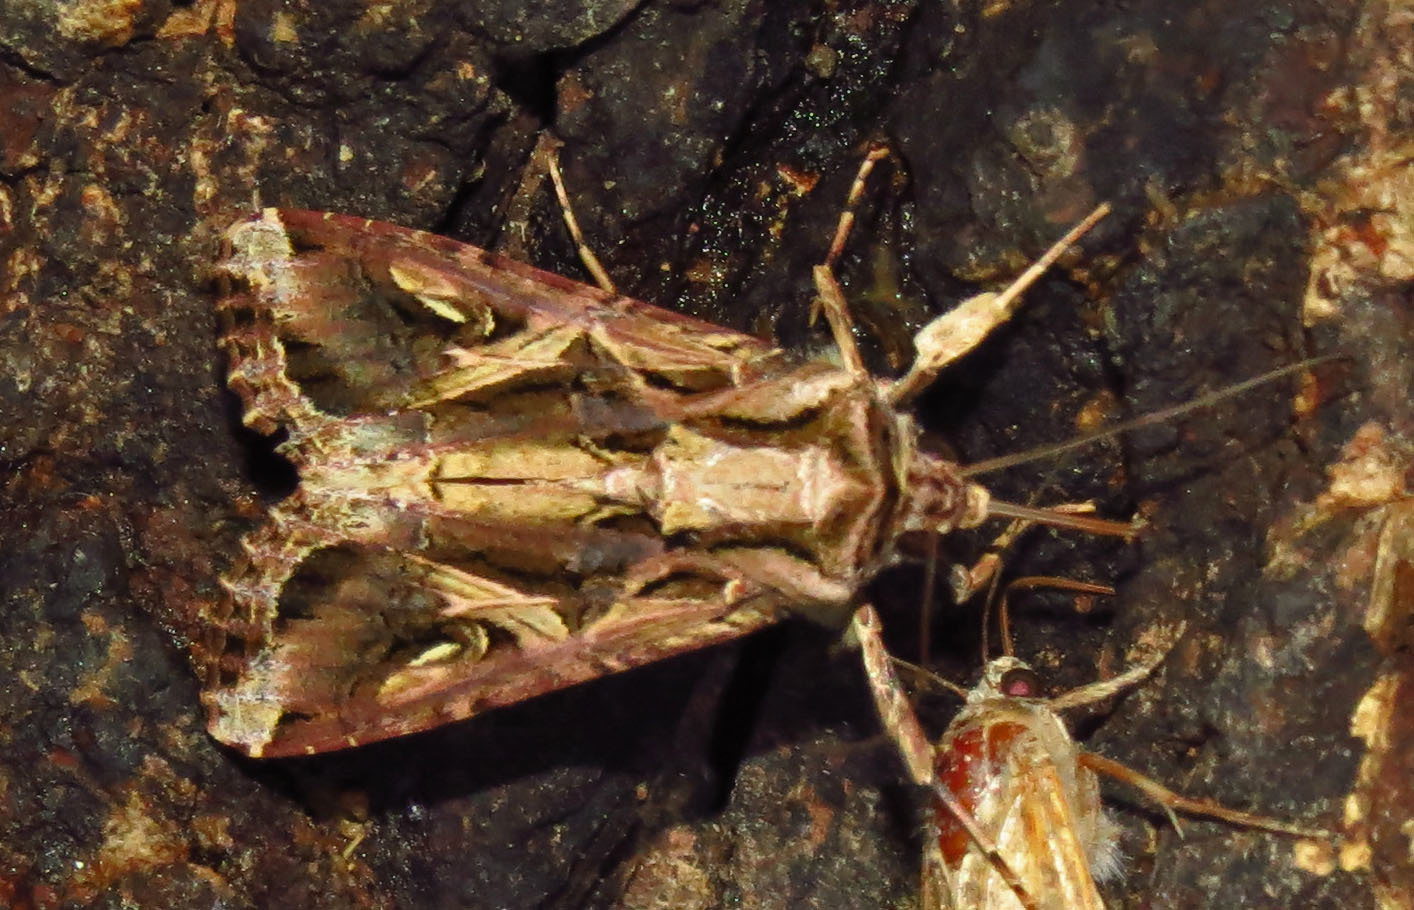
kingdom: Animalia
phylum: Arthropoda
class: Insecta
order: Lepidoptera
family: Noctuidae
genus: Spodoptera
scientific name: Spodoptera dolichos
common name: Sweetpotato armyworm
